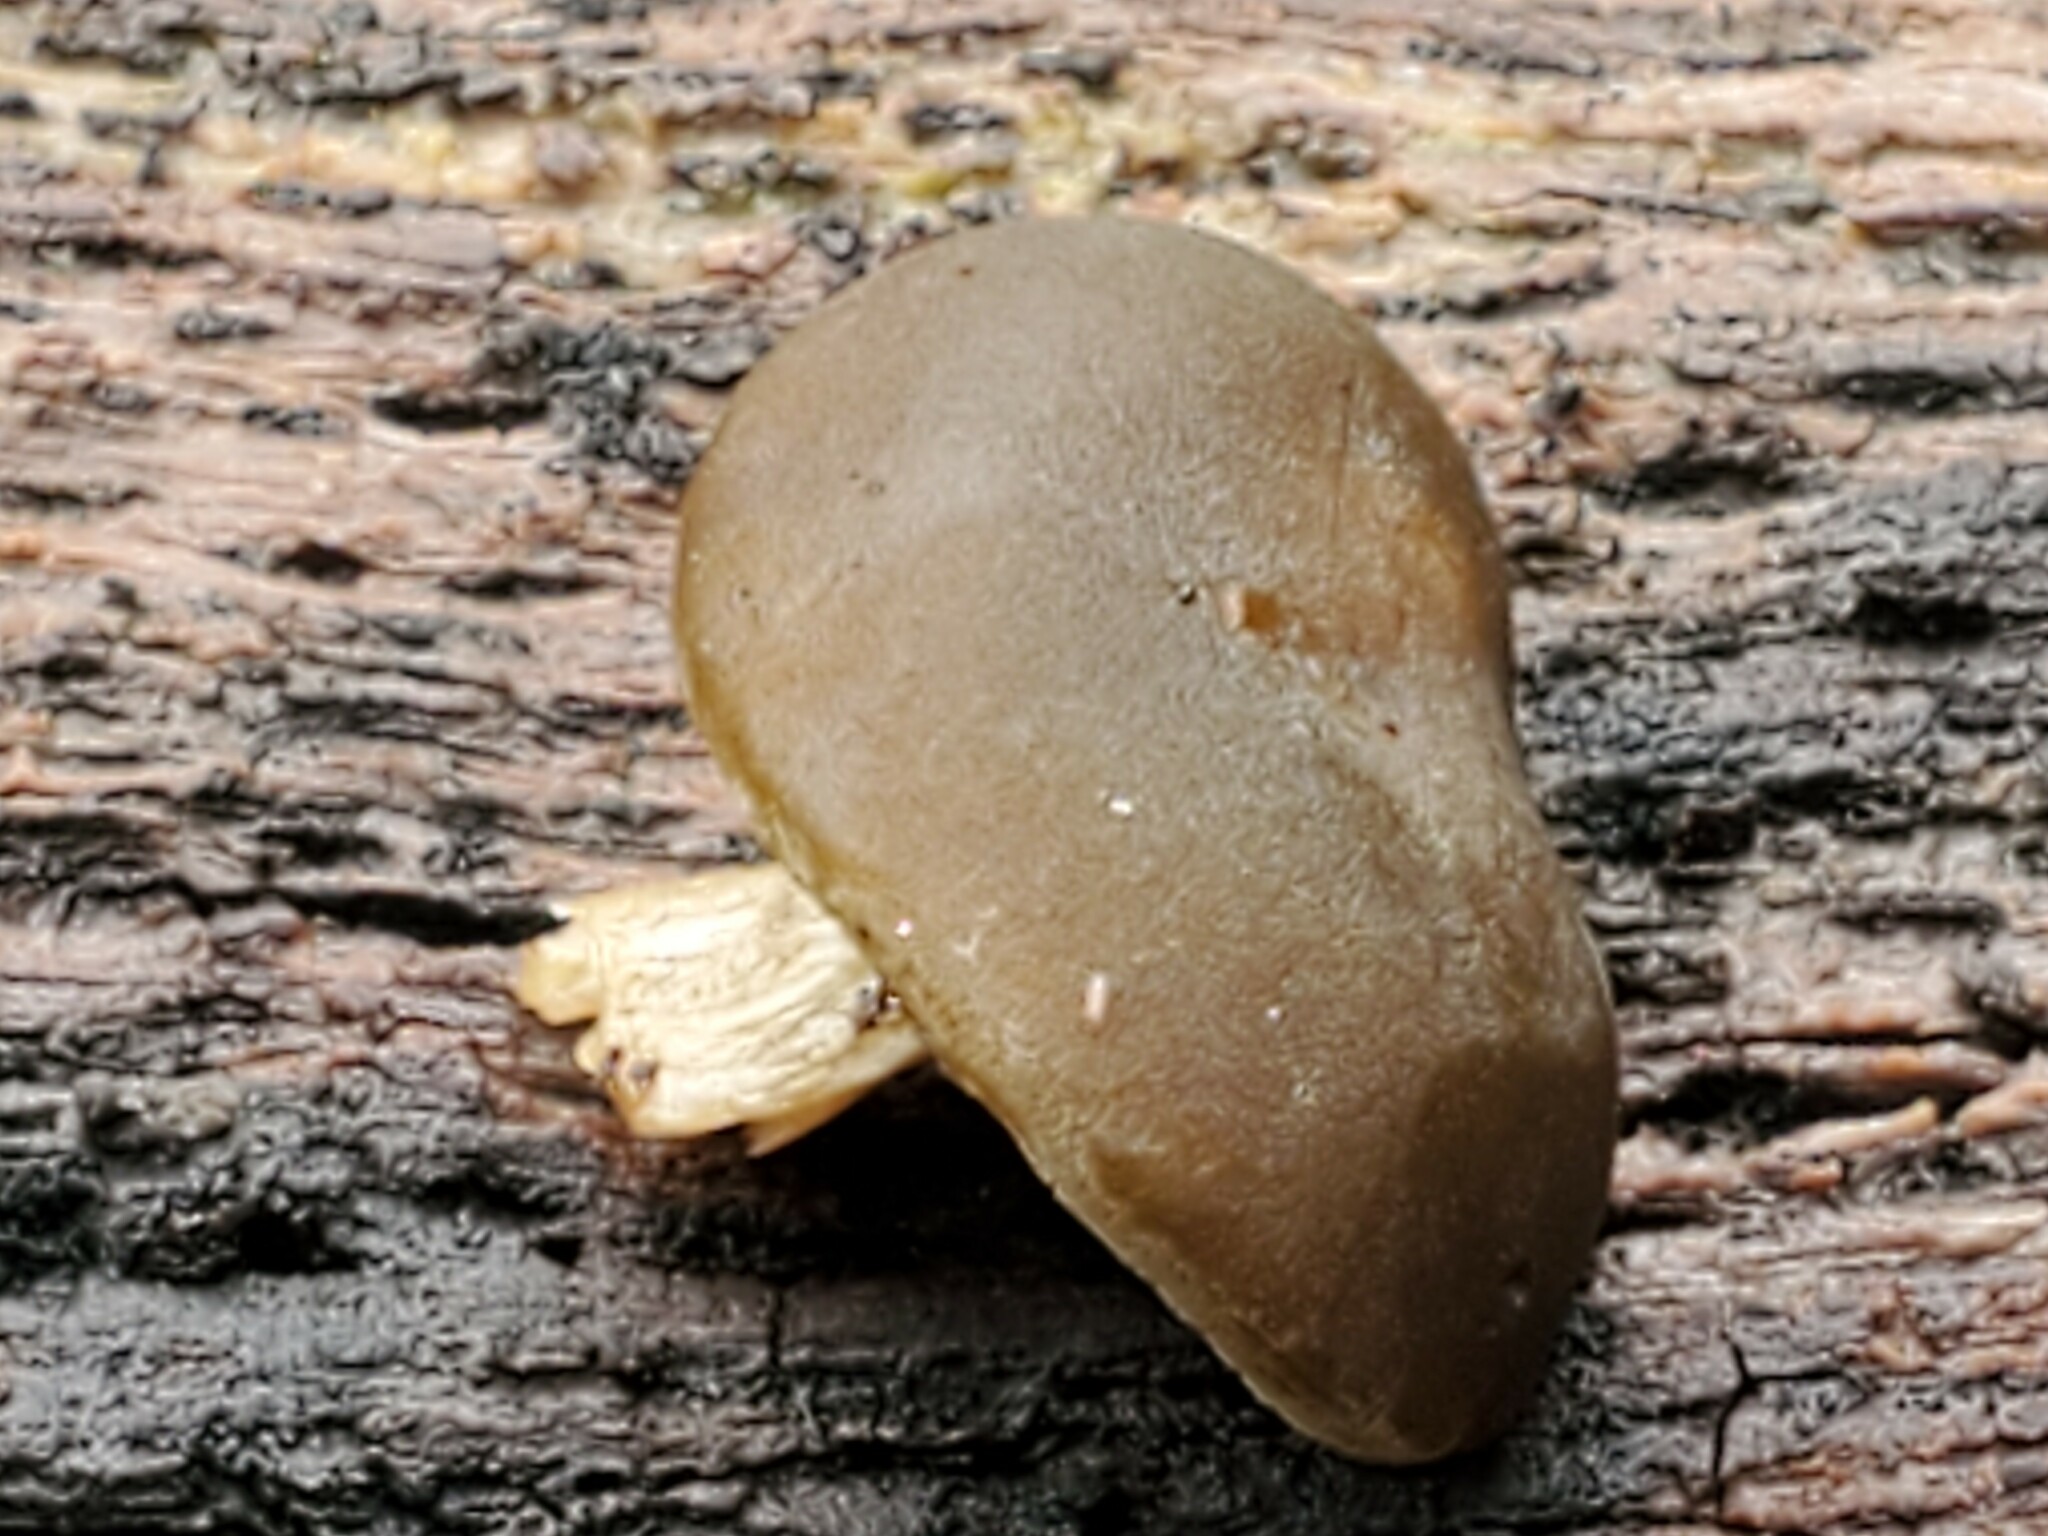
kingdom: Fungi
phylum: Basidiomycota
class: Agaricomycetes
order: Agaricales
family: Crepidotaceae
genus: Simocybe
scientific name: Simocybe centunculus
